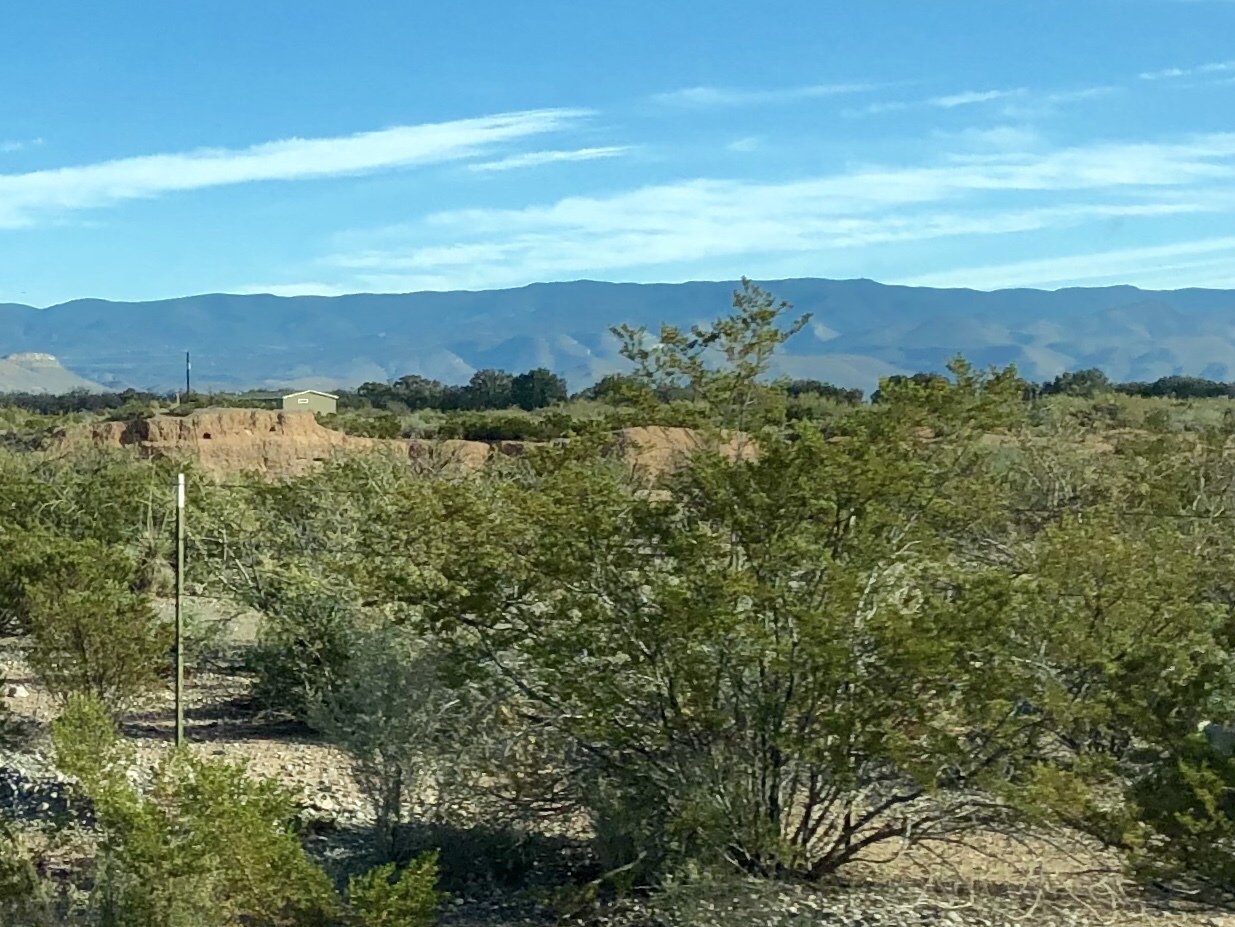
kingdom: Plantae
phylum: Tracheophyta
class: Magnoliopsida
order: Zygophyllales
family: Zygophyllaceae
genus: Larrea
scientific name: Larrea tridentata
